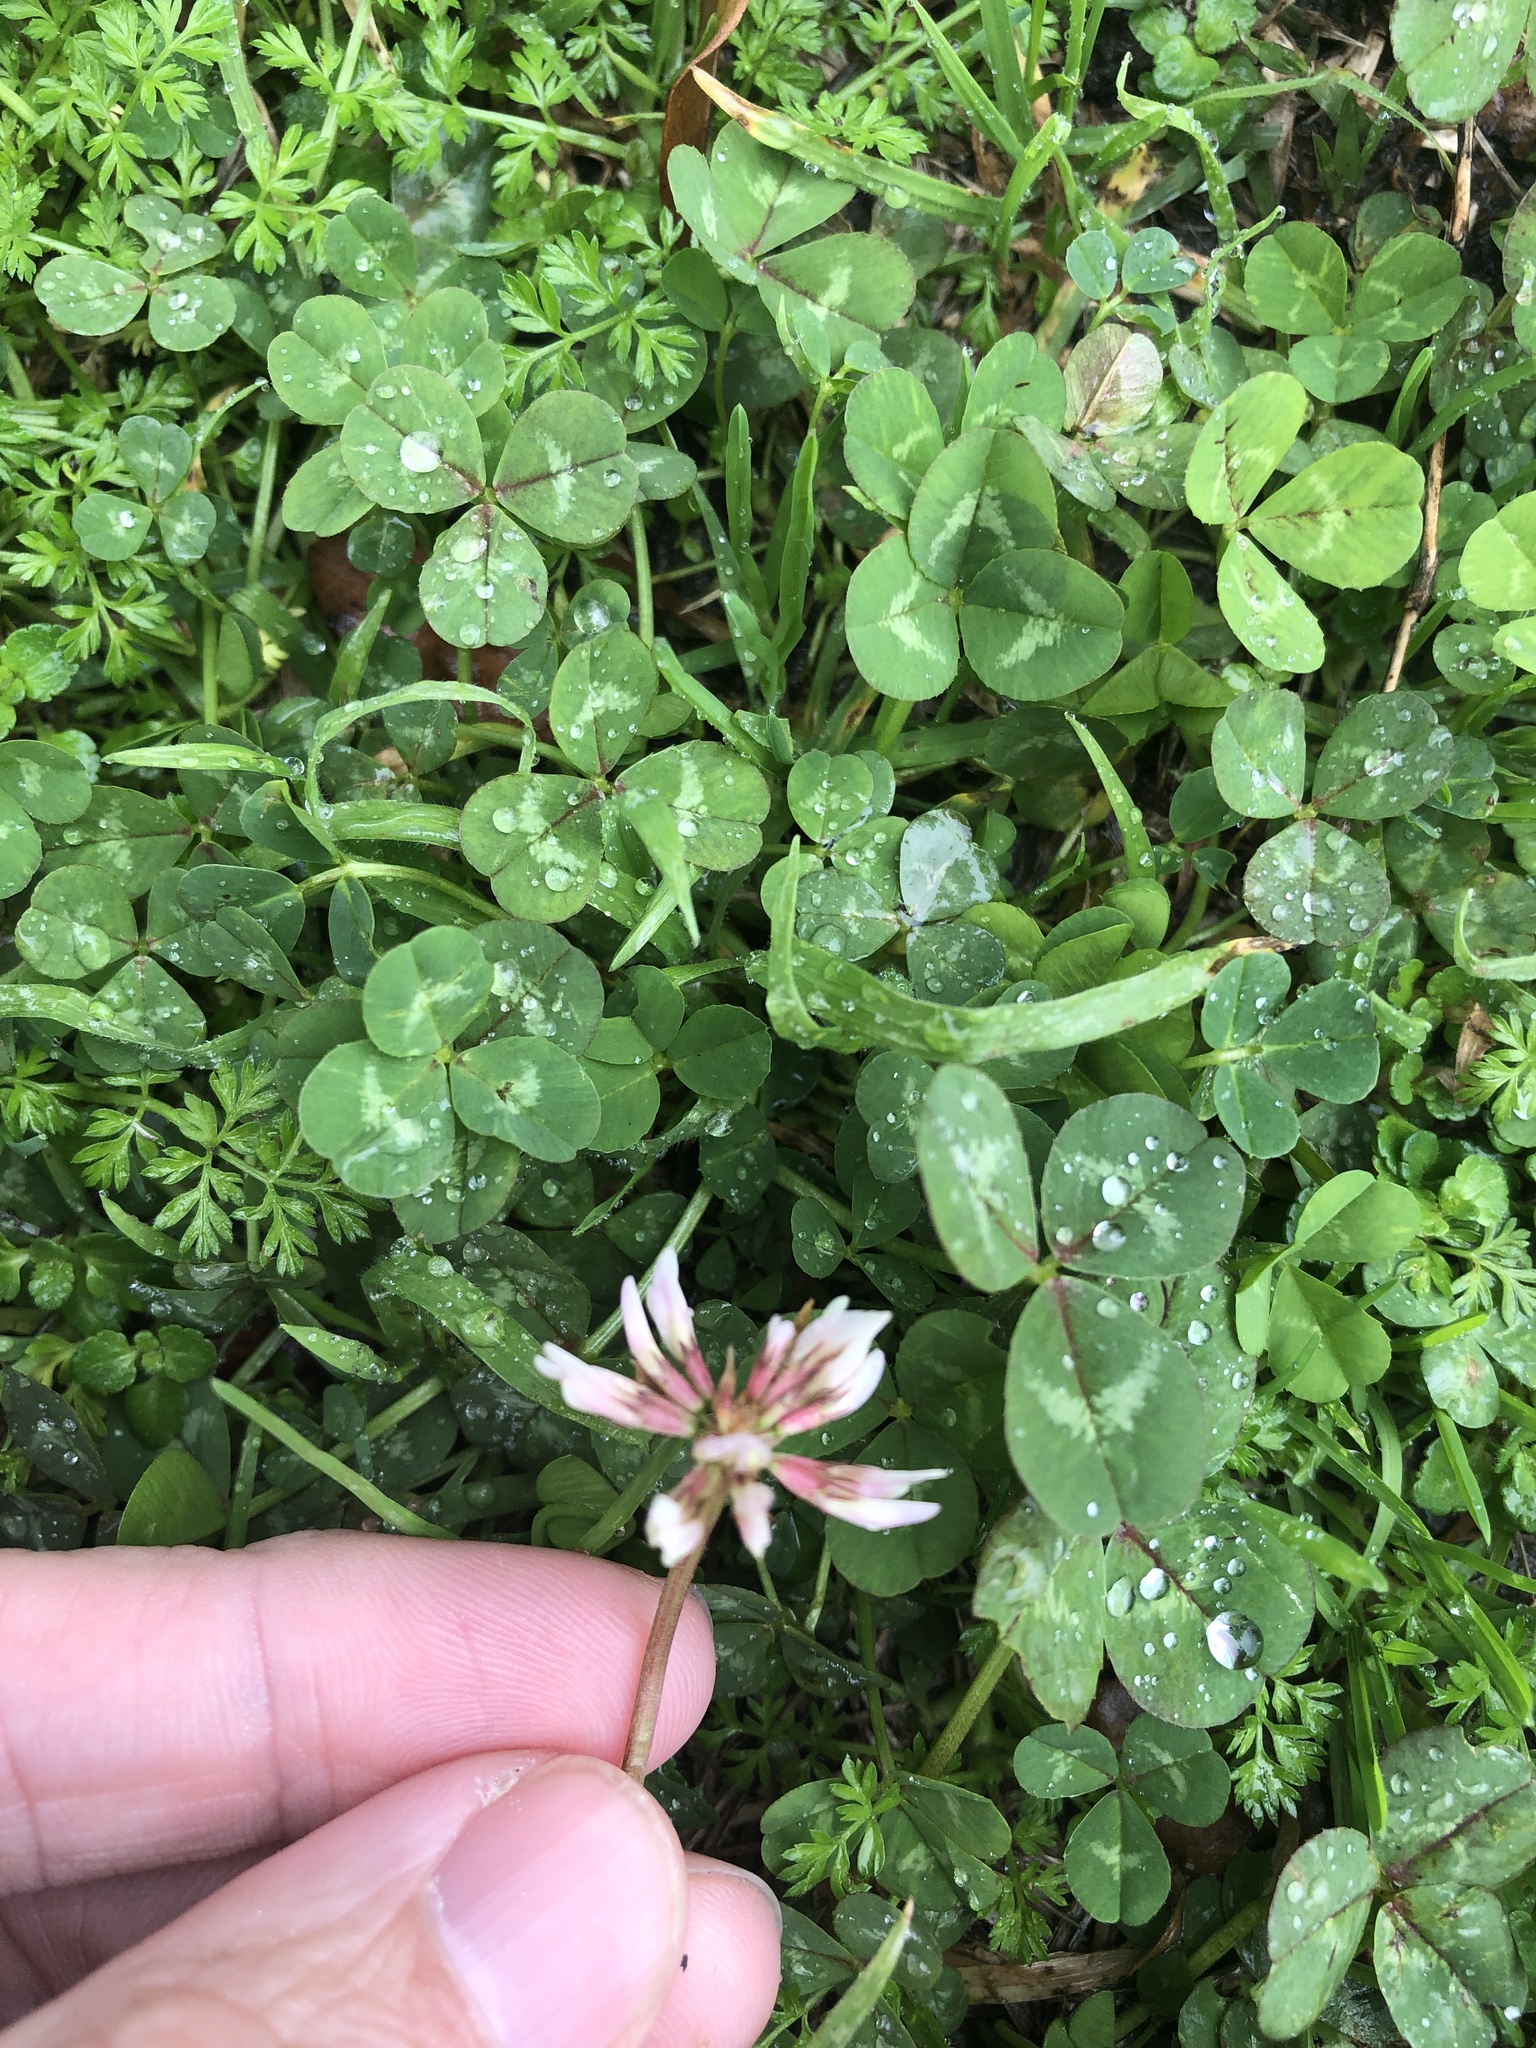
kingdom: Plantae
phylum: Tracheophyta
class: Magnoliopsida
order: Fabales
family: Fabaceae
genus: Trifolium
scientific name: Trifolium repens
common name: White clover
